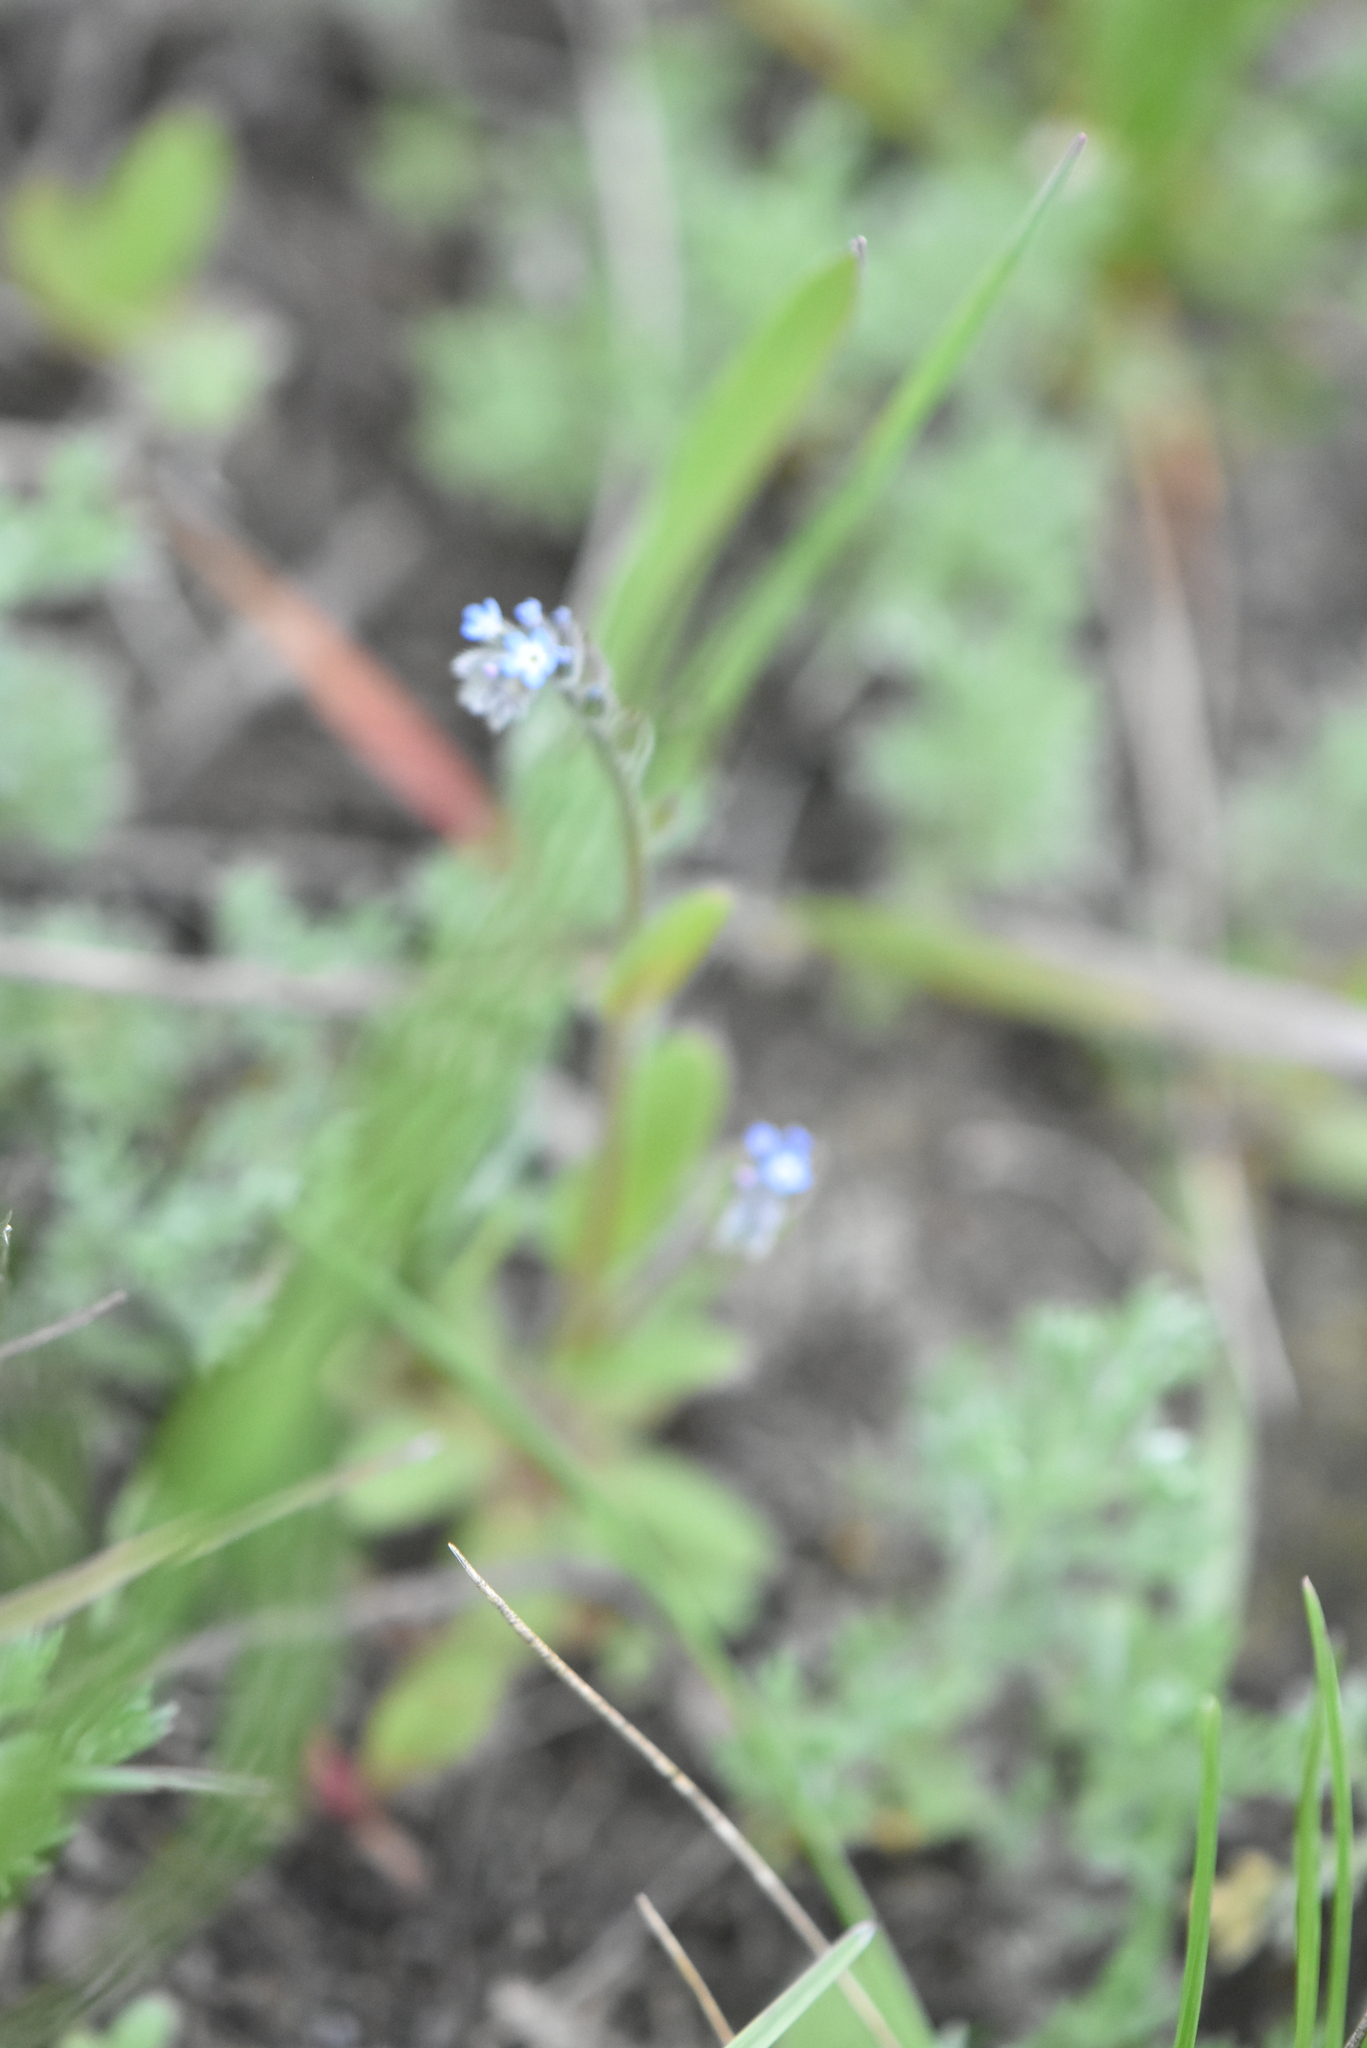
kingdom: Plantae
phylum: Tracheophyta
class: Magnoliopsida
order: Boraginales
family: Boraginaceae
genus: Myosotis
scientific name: Myosotis stricta
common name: Strict forget-me-not
